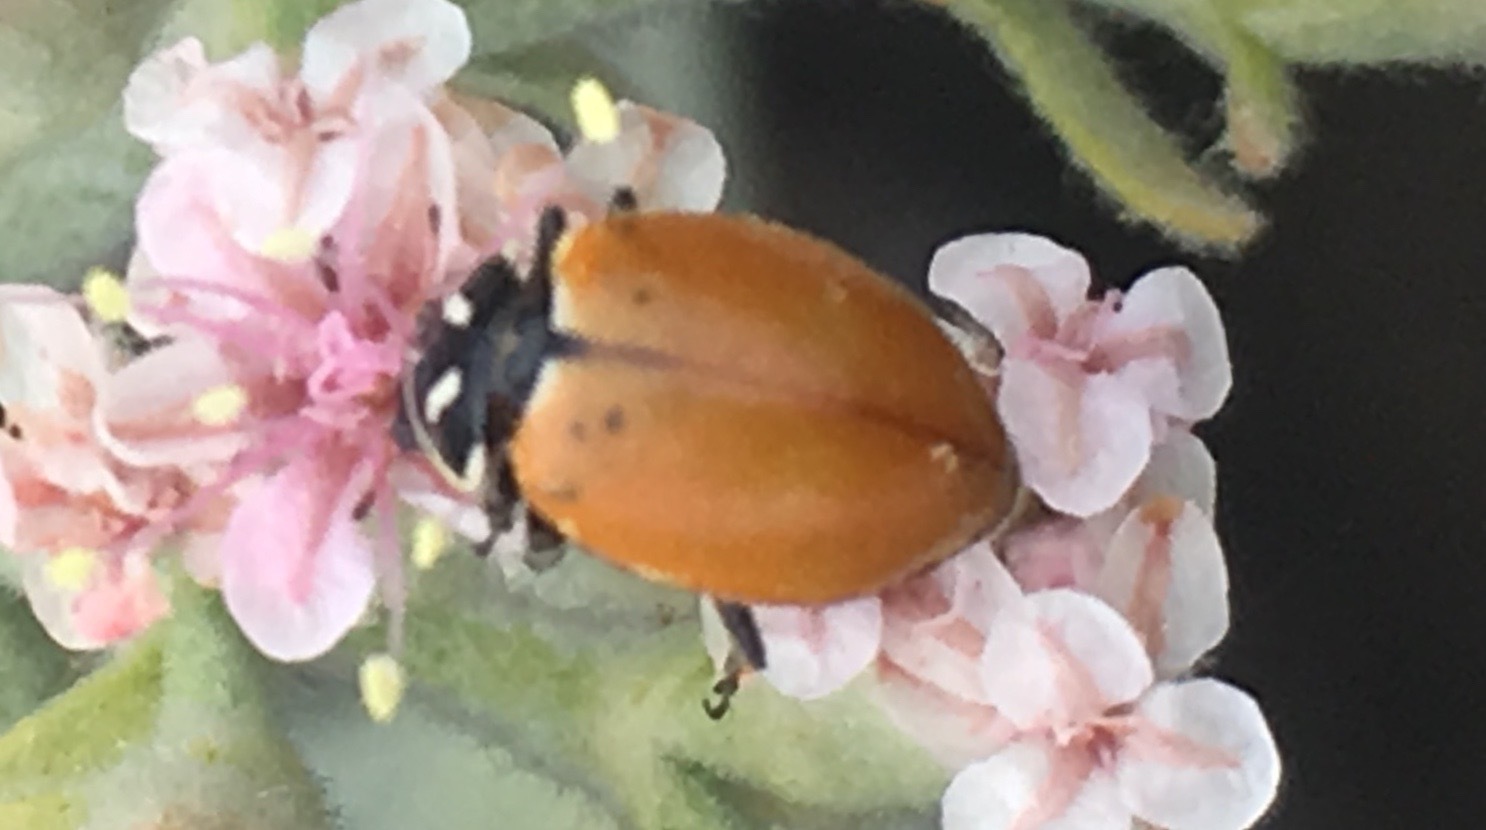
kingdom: Animalia
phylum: Arthropoda
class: Insecta
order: Coleoptera
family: Coccinellidae
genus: Hippodamia
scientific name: Hippodamia convergens
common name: Convergent lady beetle
